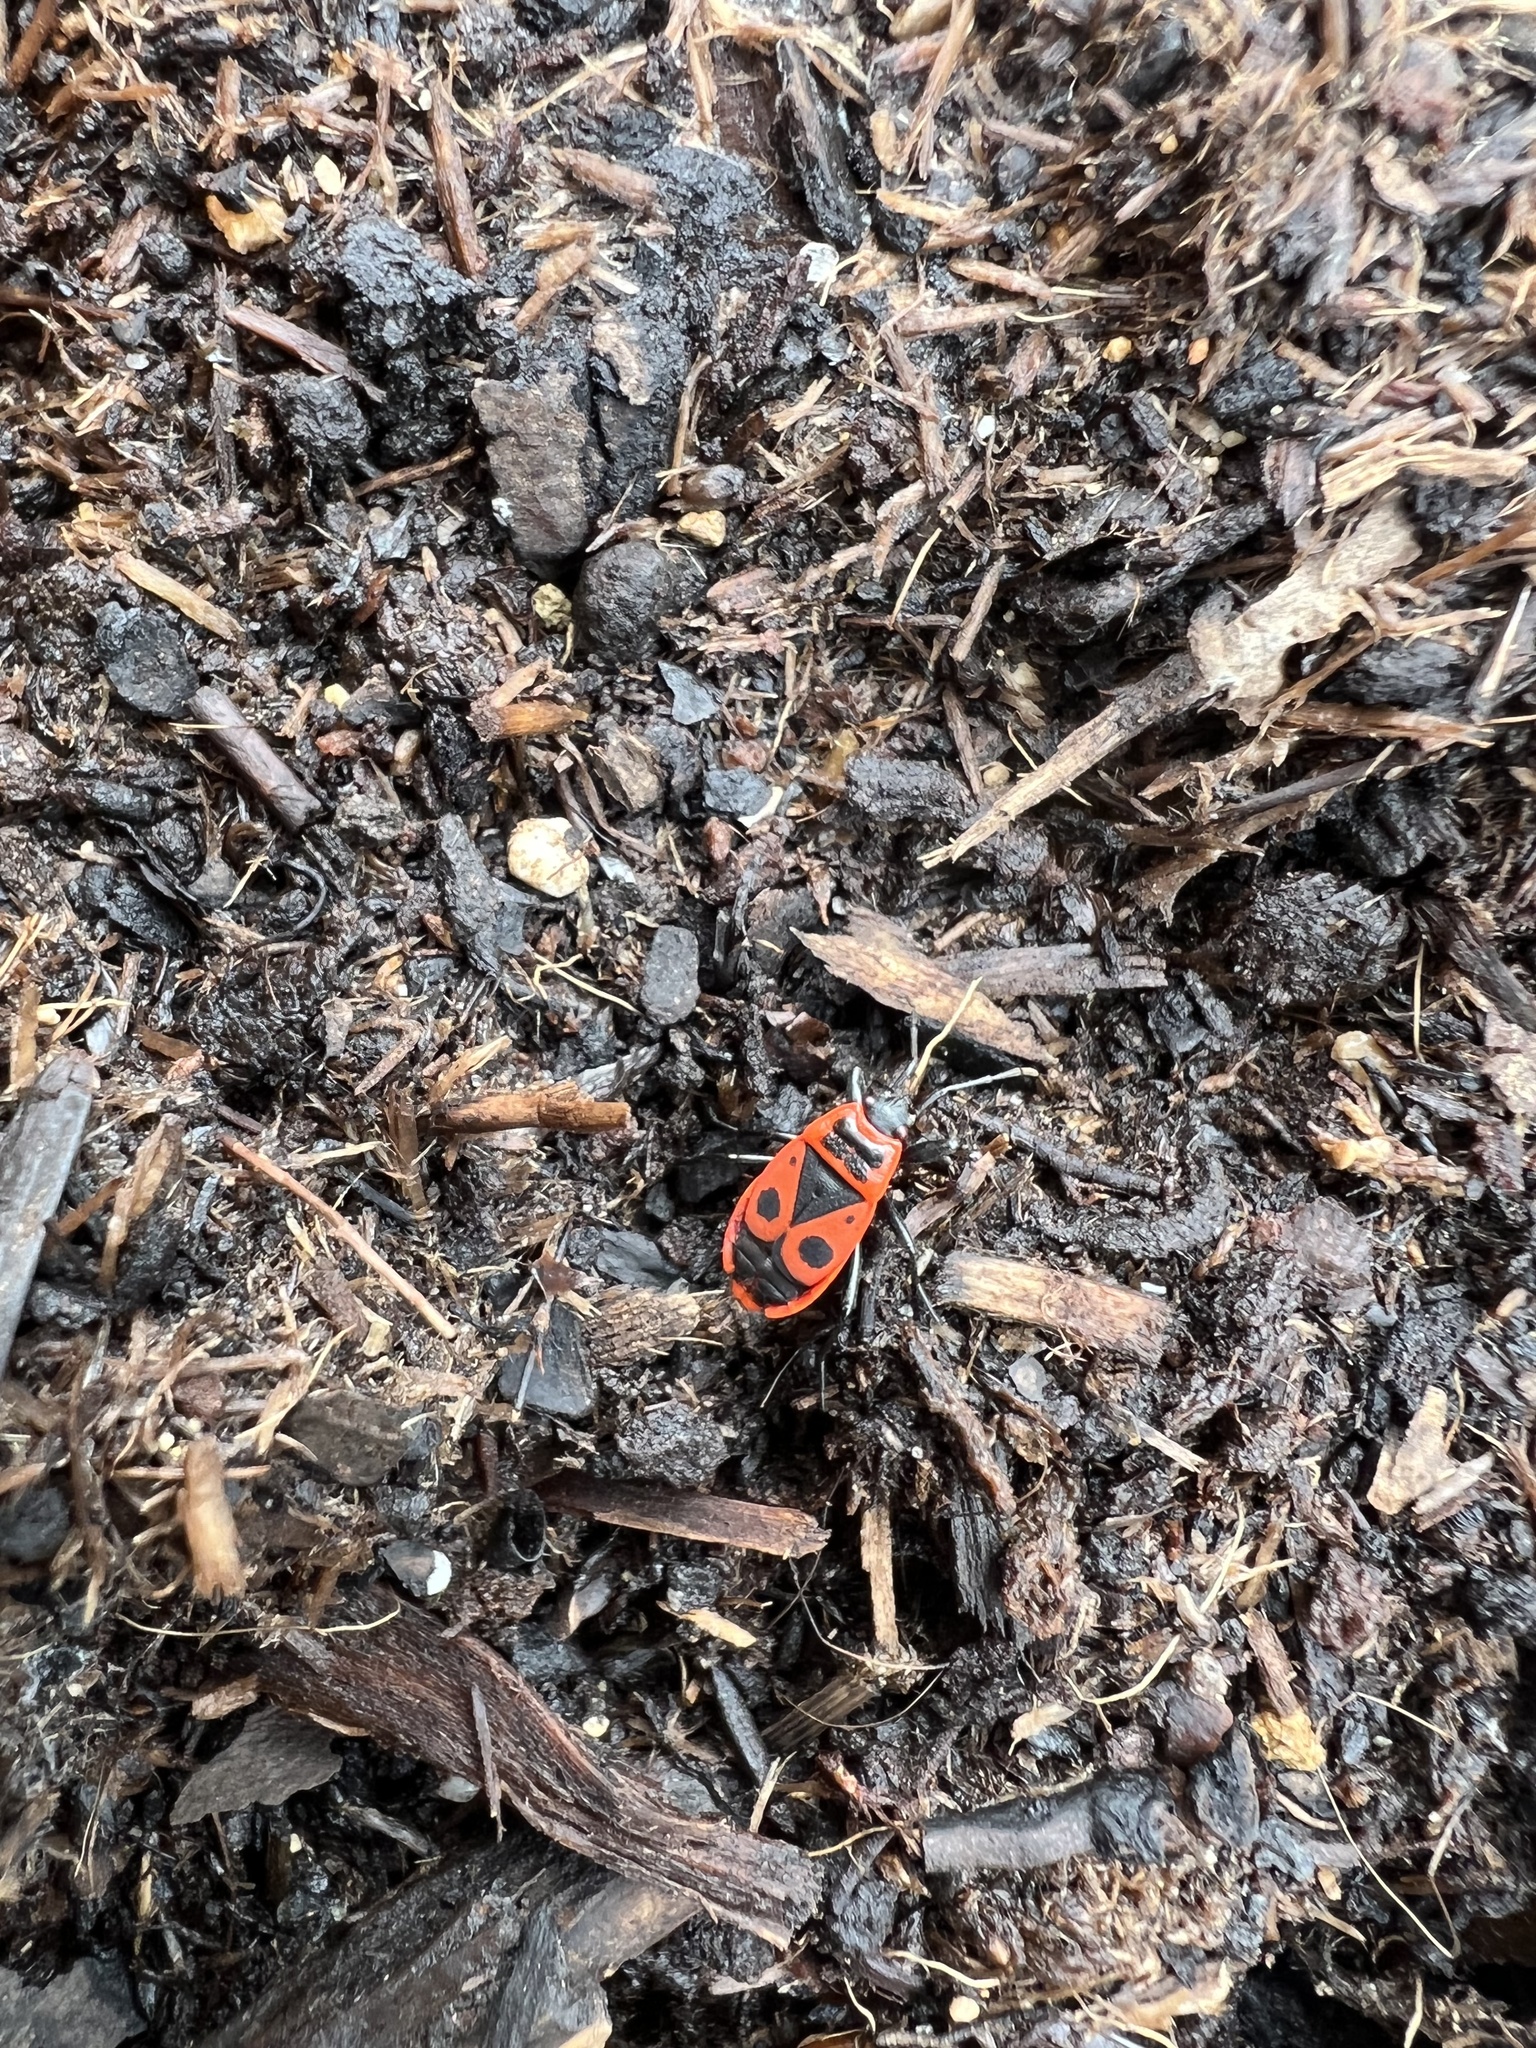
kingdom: Animalia
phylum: Arthropoda
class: Insecta
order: Hemiptera
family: Pyrrhocoridae
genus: Pyrrhocoris
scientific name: Pyrrhocoris apterus
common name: Firebug
